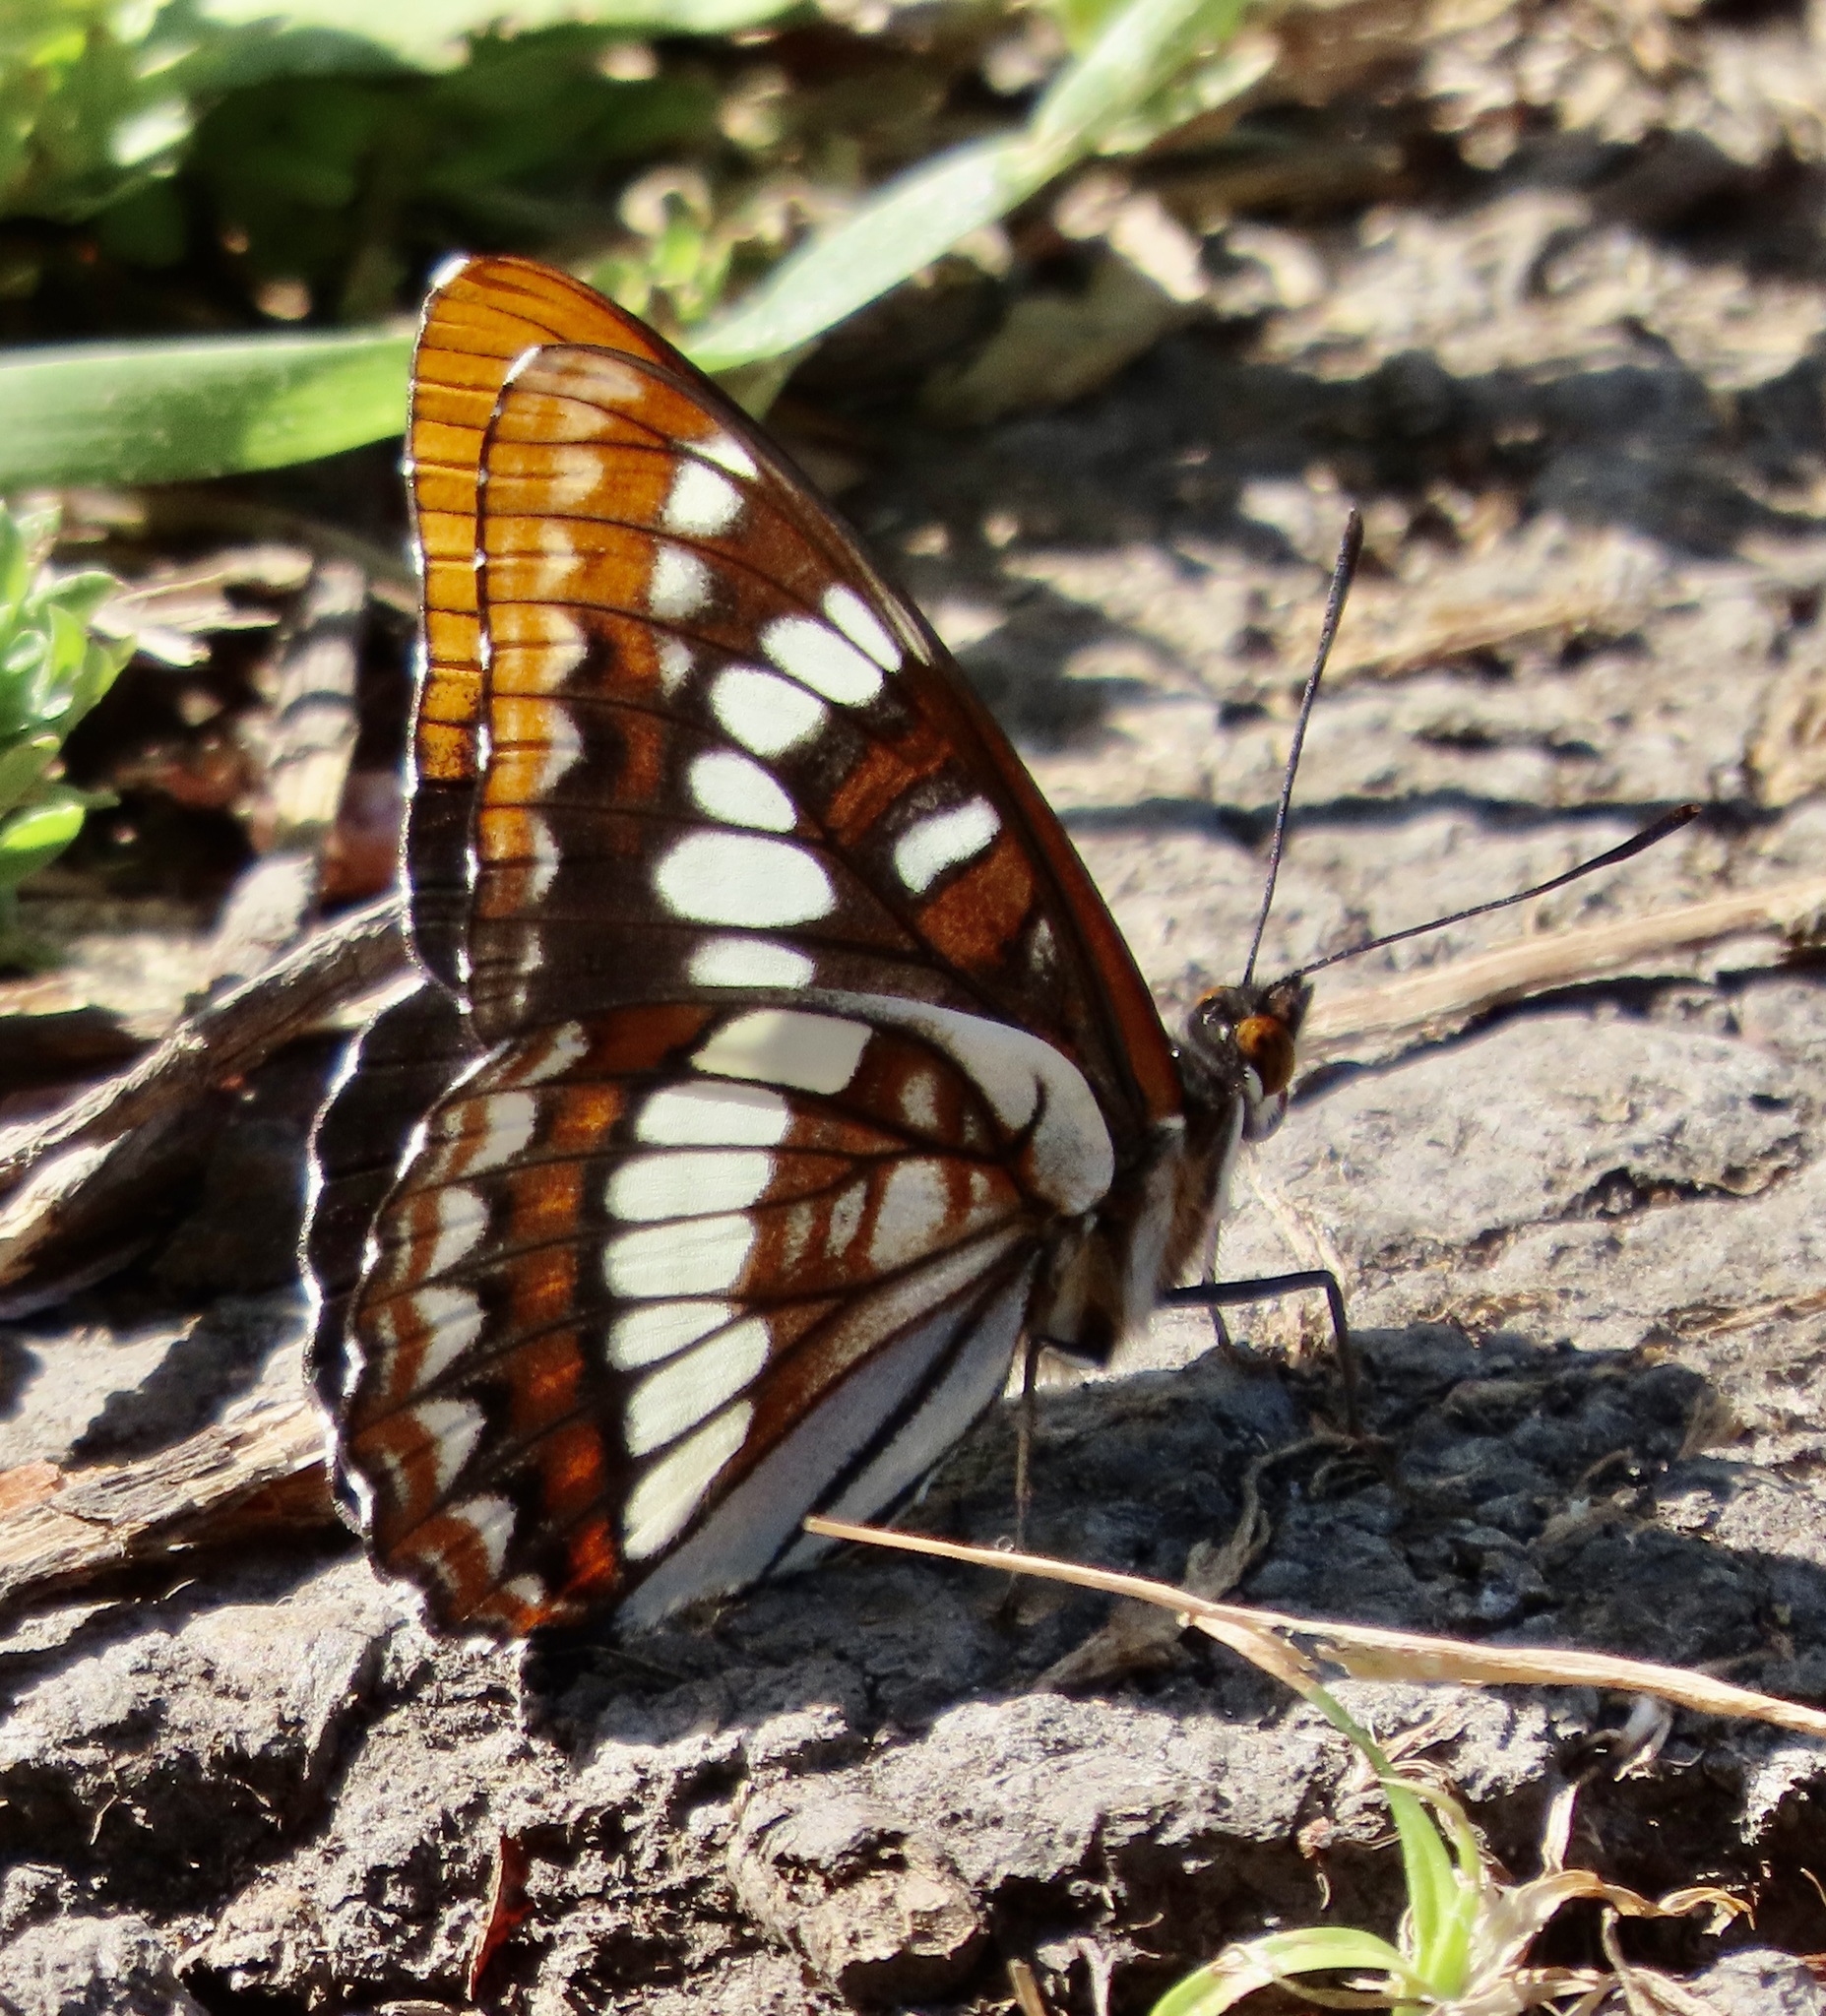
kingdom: Animalia
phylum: Arthropoda
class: Insecta
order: Lepidoptera
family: Nymphalidae
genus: Limenitis
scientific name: Limenitis lorquini
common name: Lorquin's admiral
